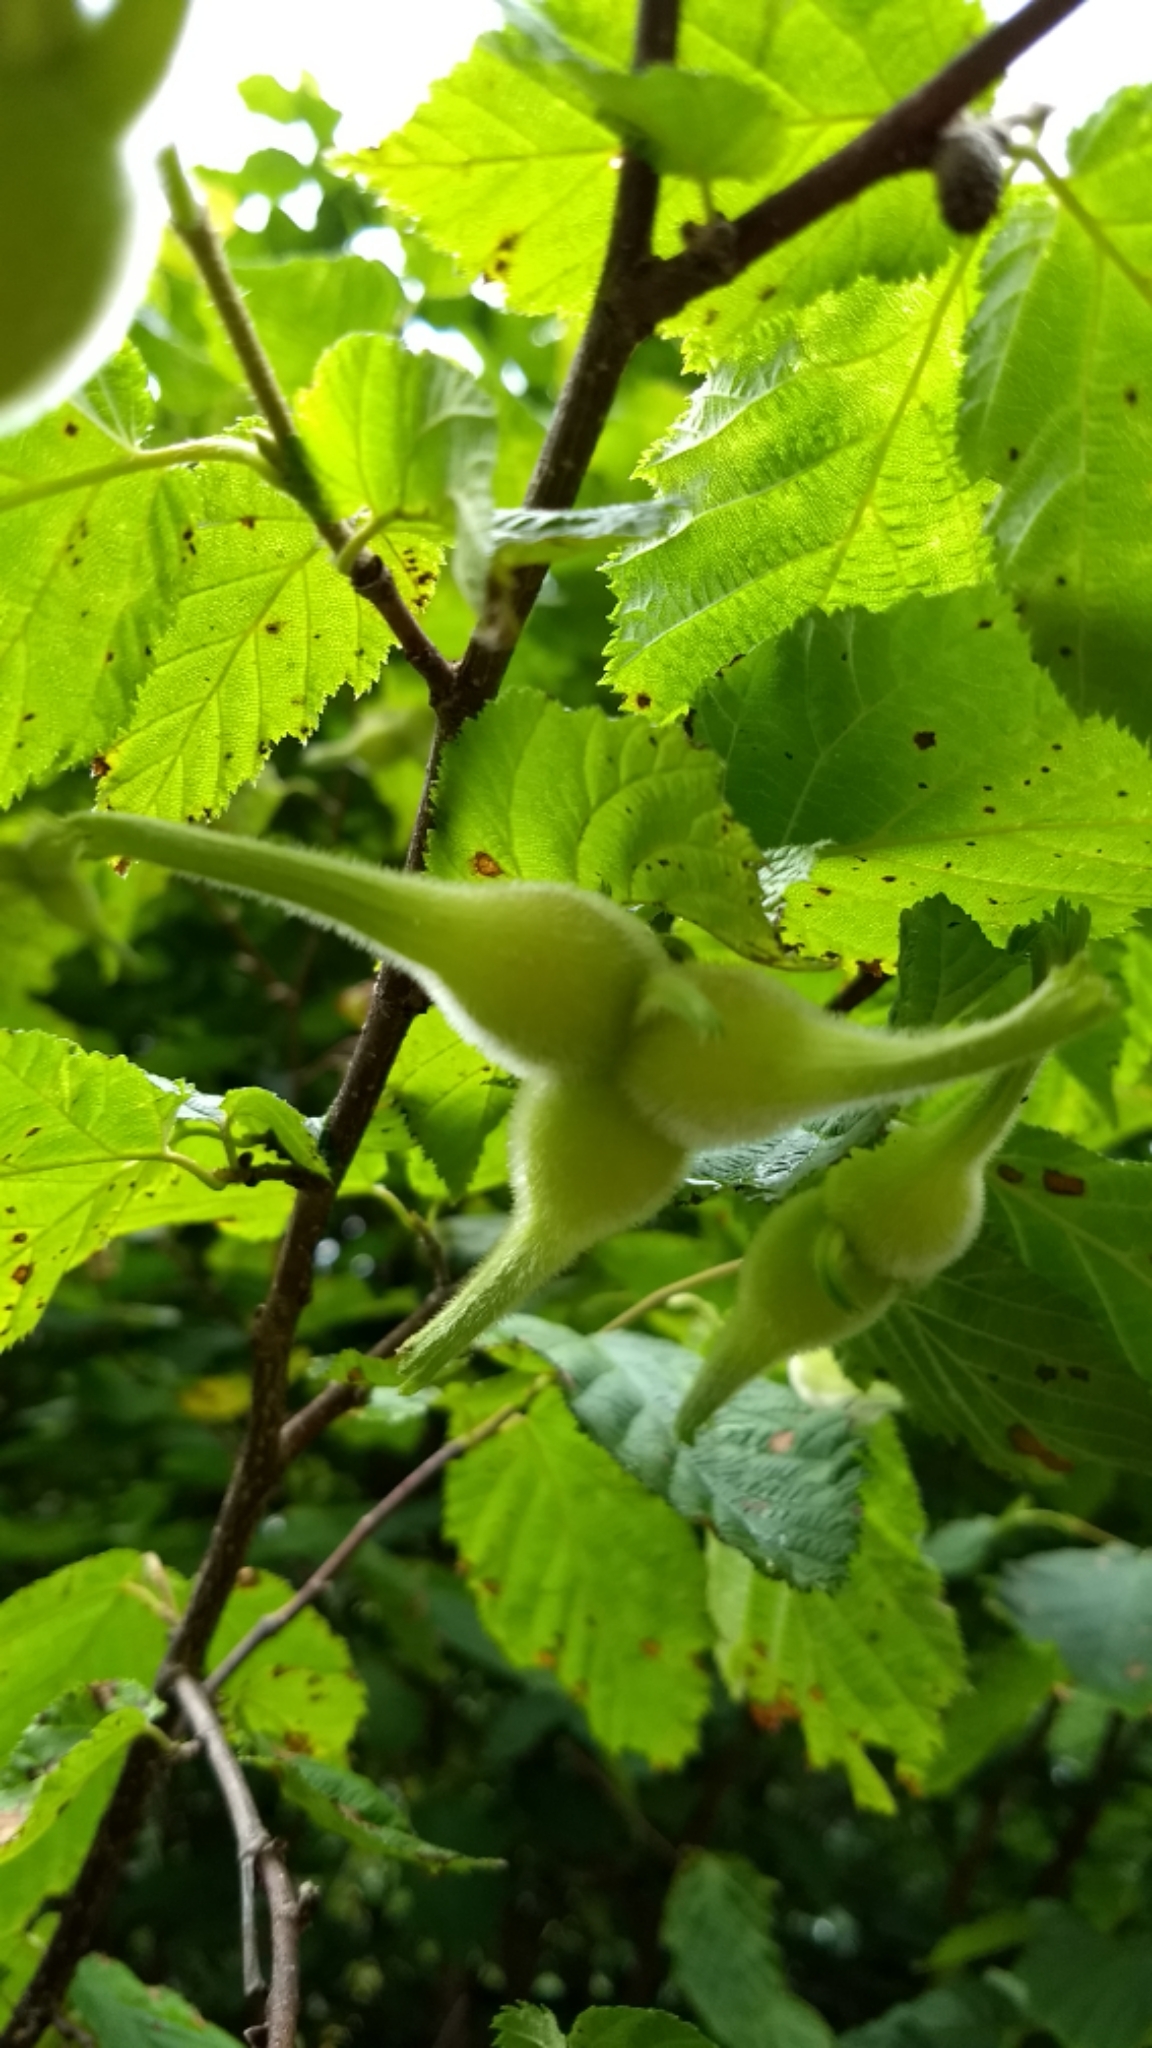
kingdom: Plantae
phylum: Tracheophyta
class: Magnoliopsida
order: Fagales
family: Betulaceae
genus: Corylus
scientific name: Corylus cornuta
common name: Beaked hazel
